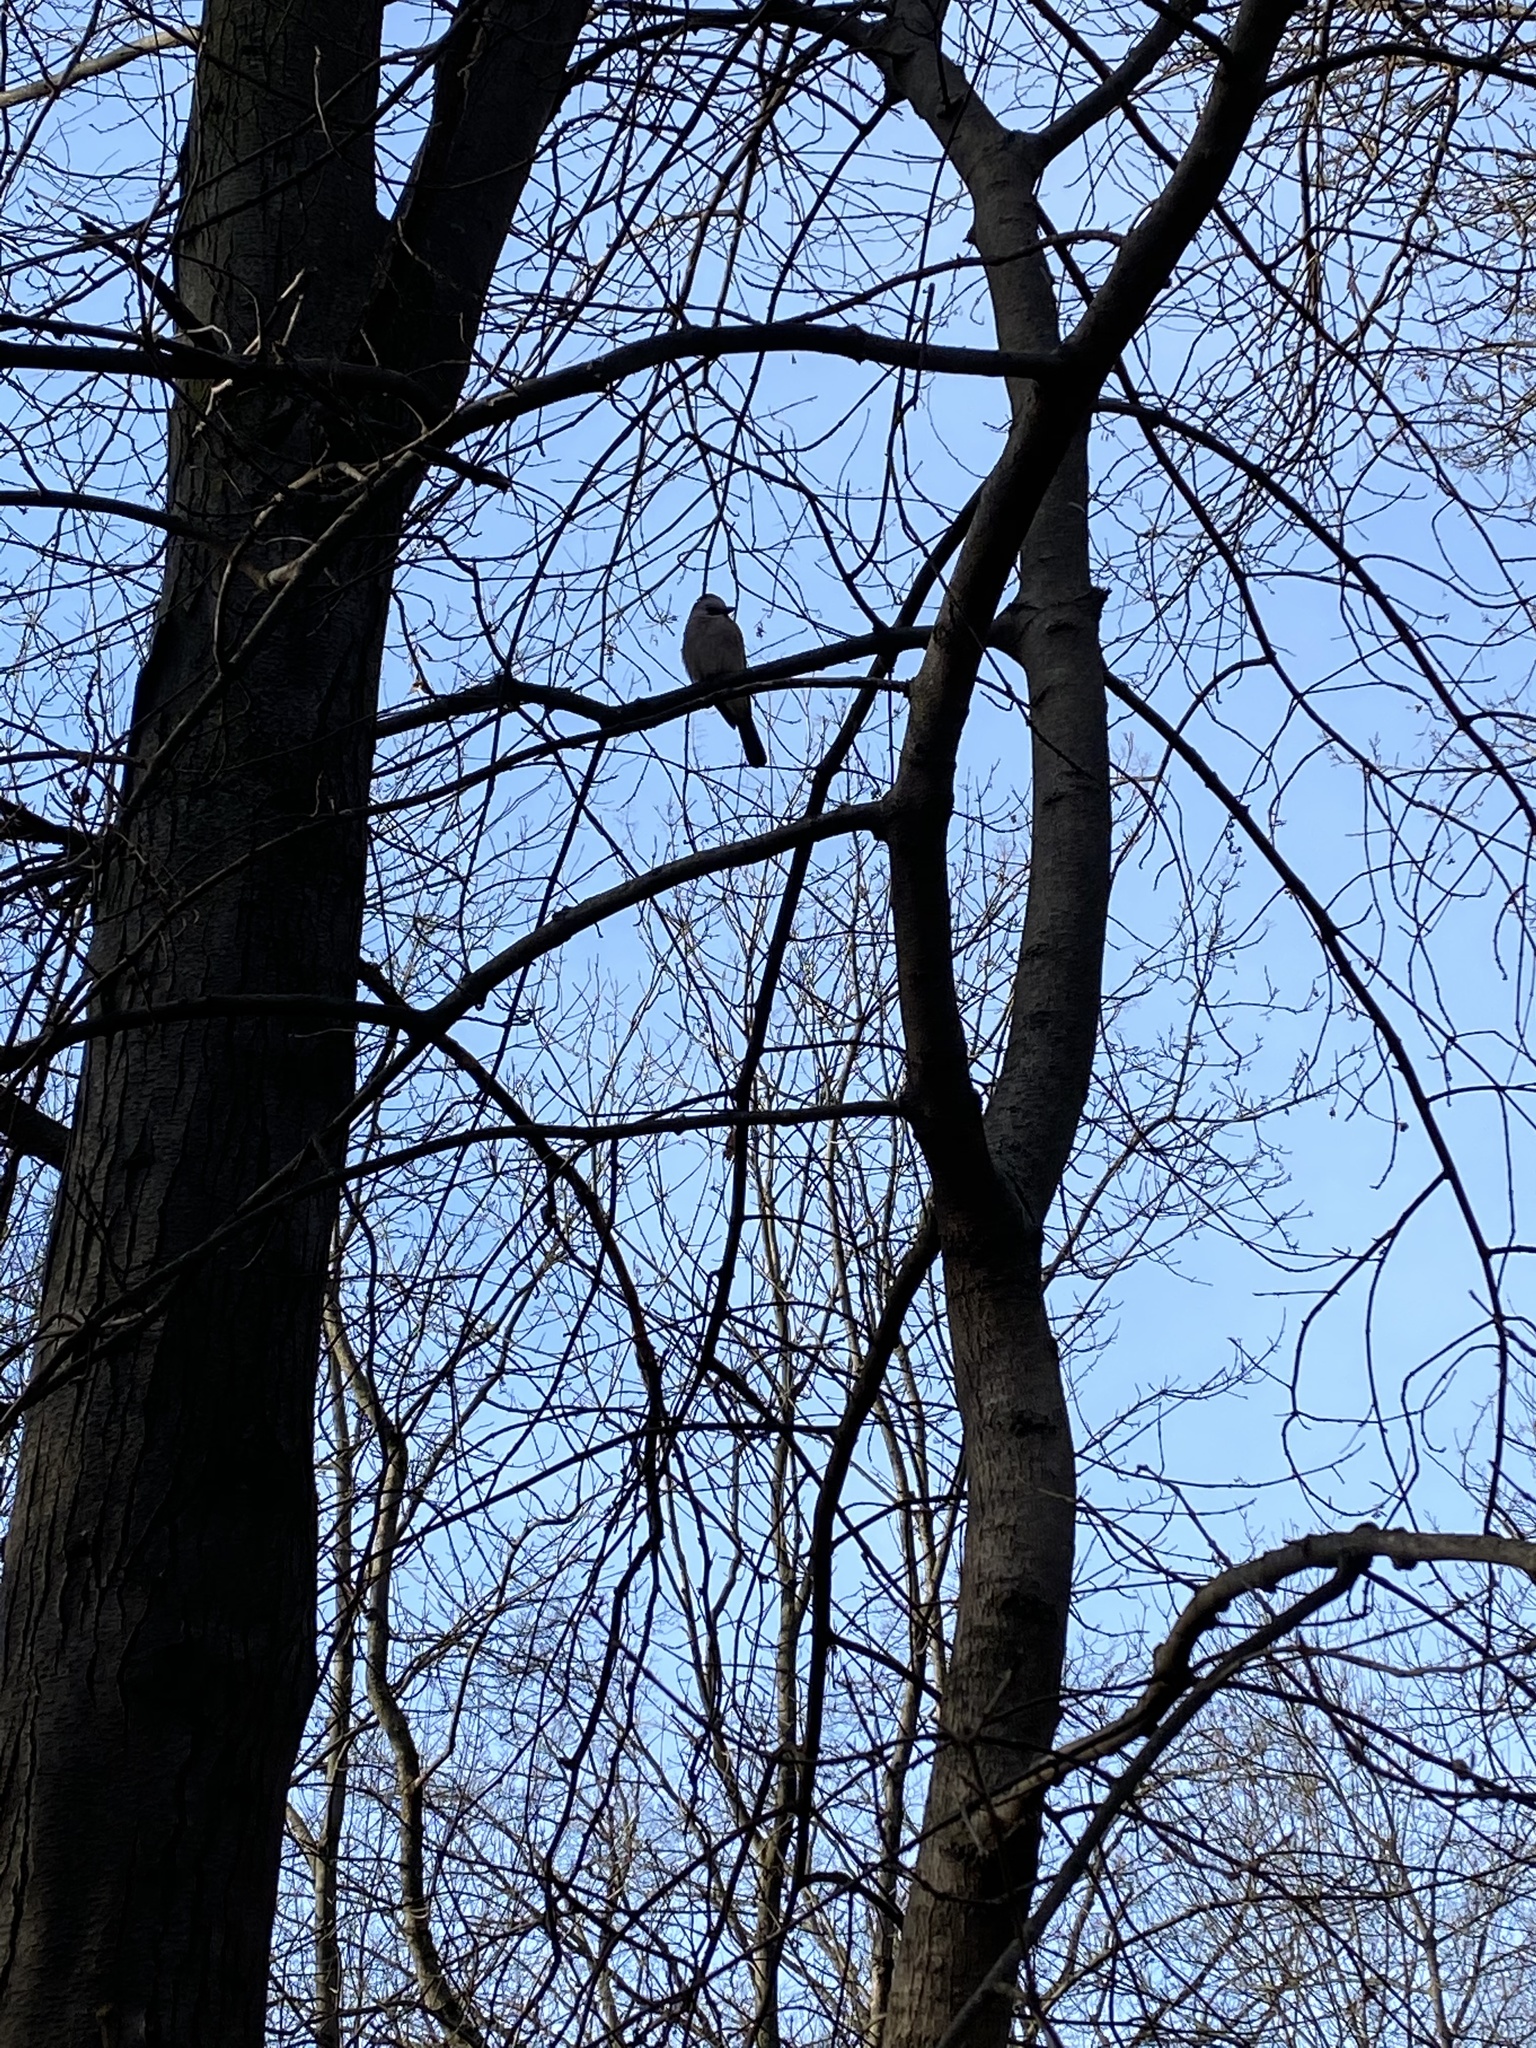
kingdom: Animalia
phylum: Chordata
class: Aves
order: Passeriformes
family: Corvidae
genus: Garrulus
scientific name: Garrulus glandarius
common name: Eurasian jay
